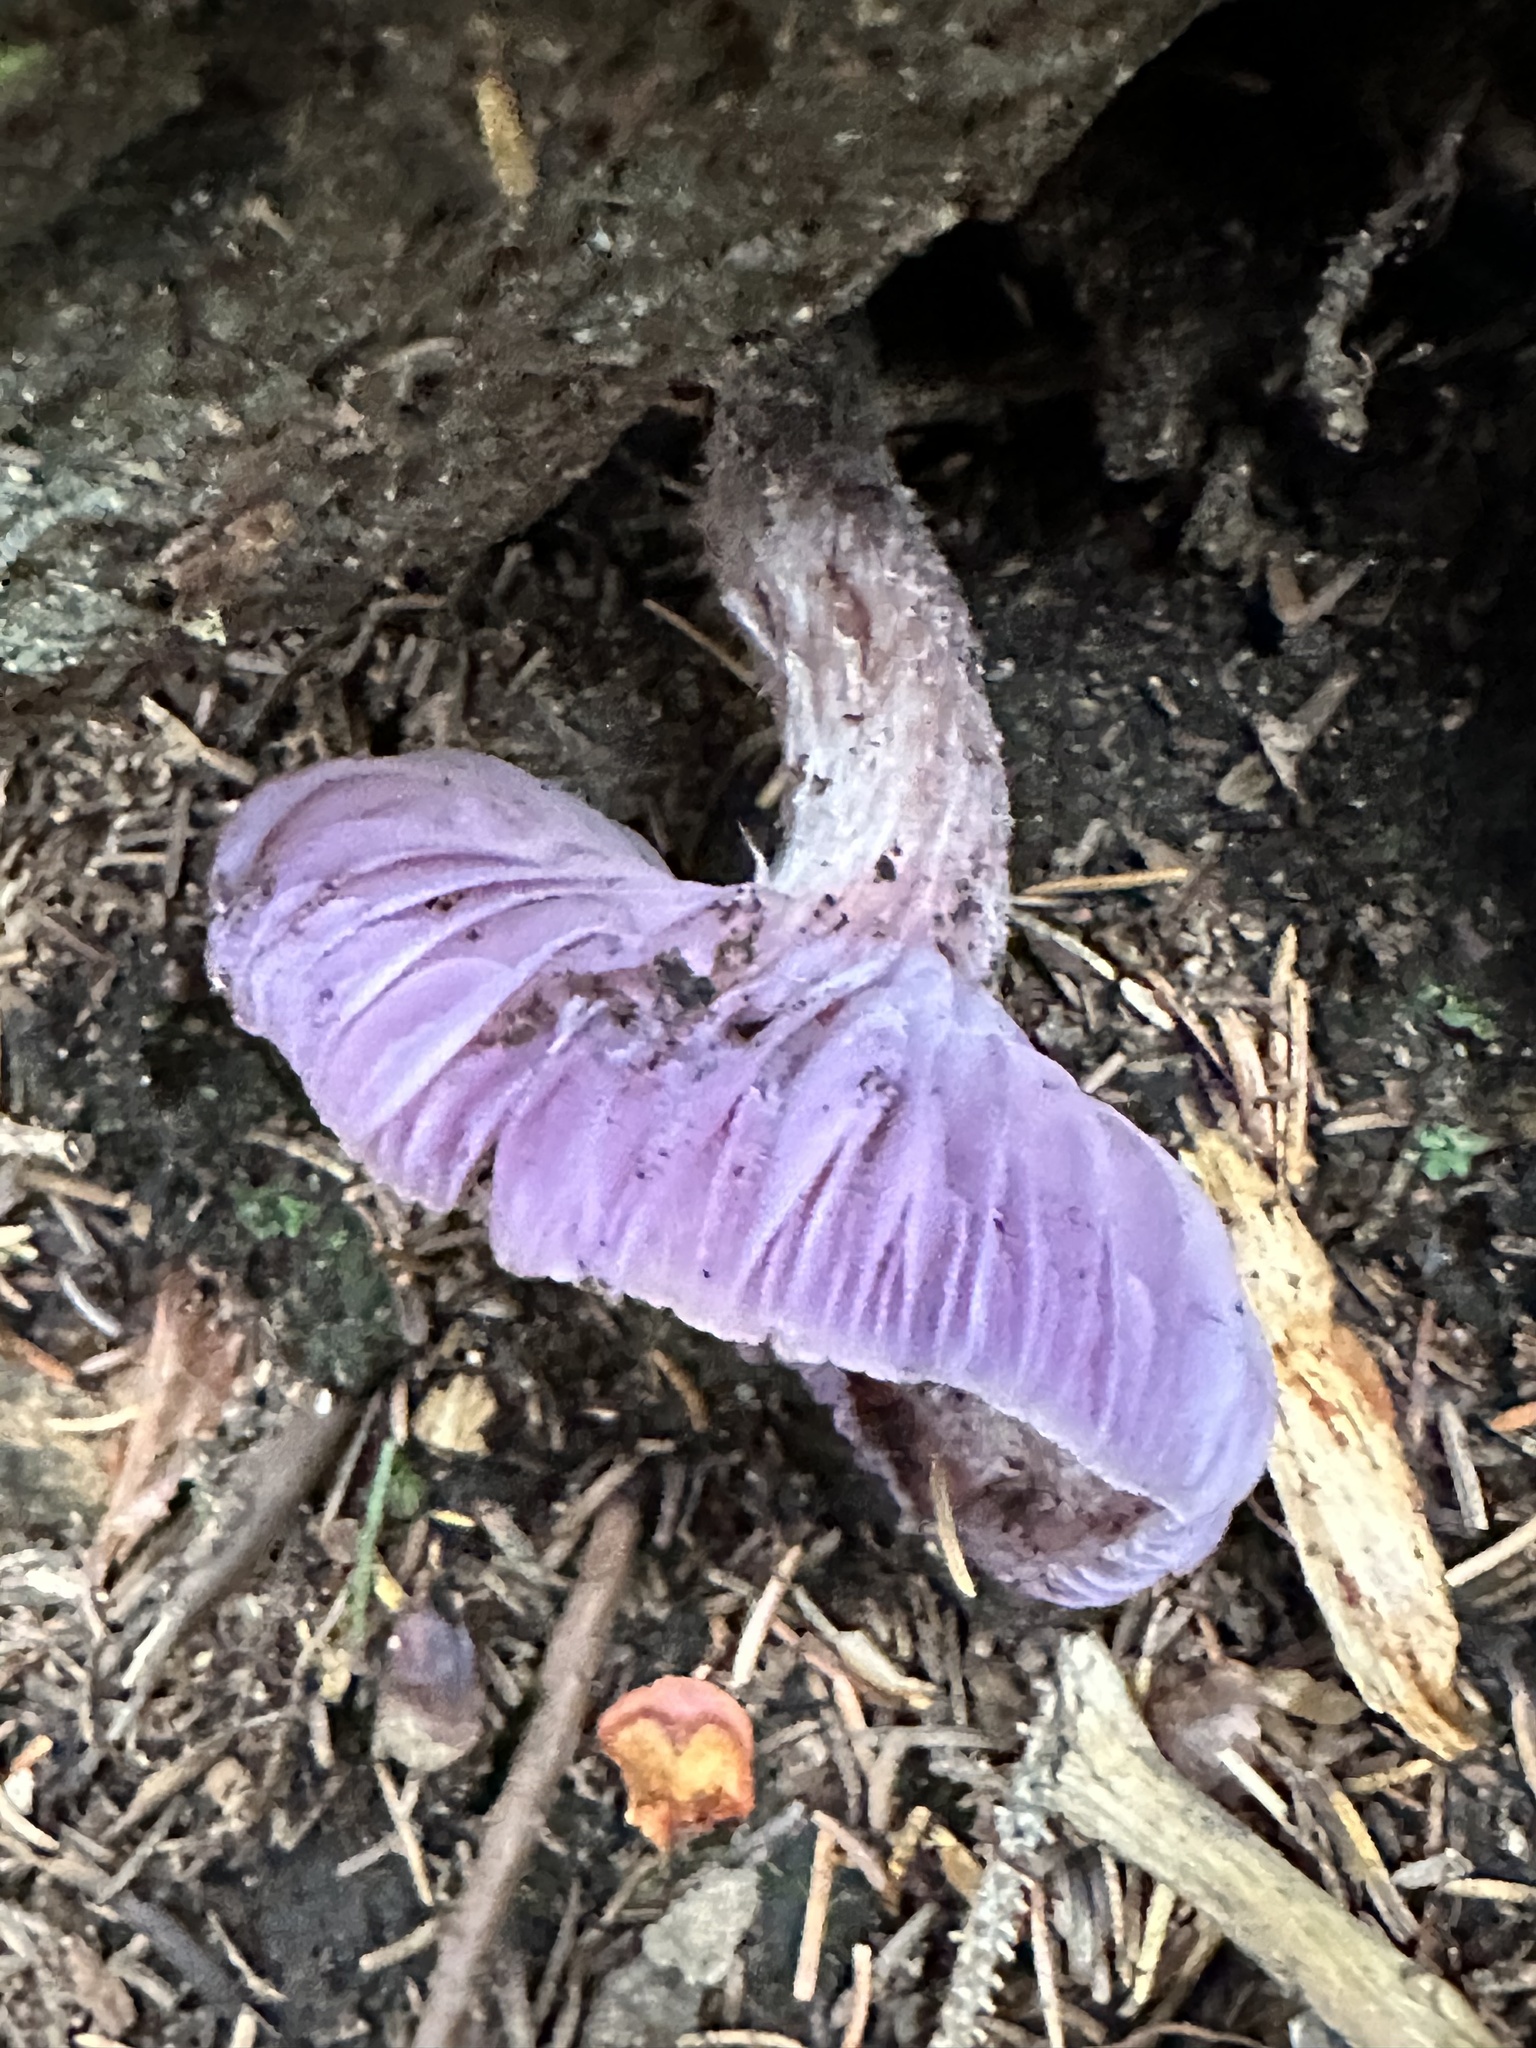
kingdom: Fungi
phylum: Basidiomycota
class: Agaricomycetes
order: Agaricales
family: Hydnangiaceae
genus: Laccaria
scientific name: Laccaria ochropurpurea
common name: Purple laccaria
